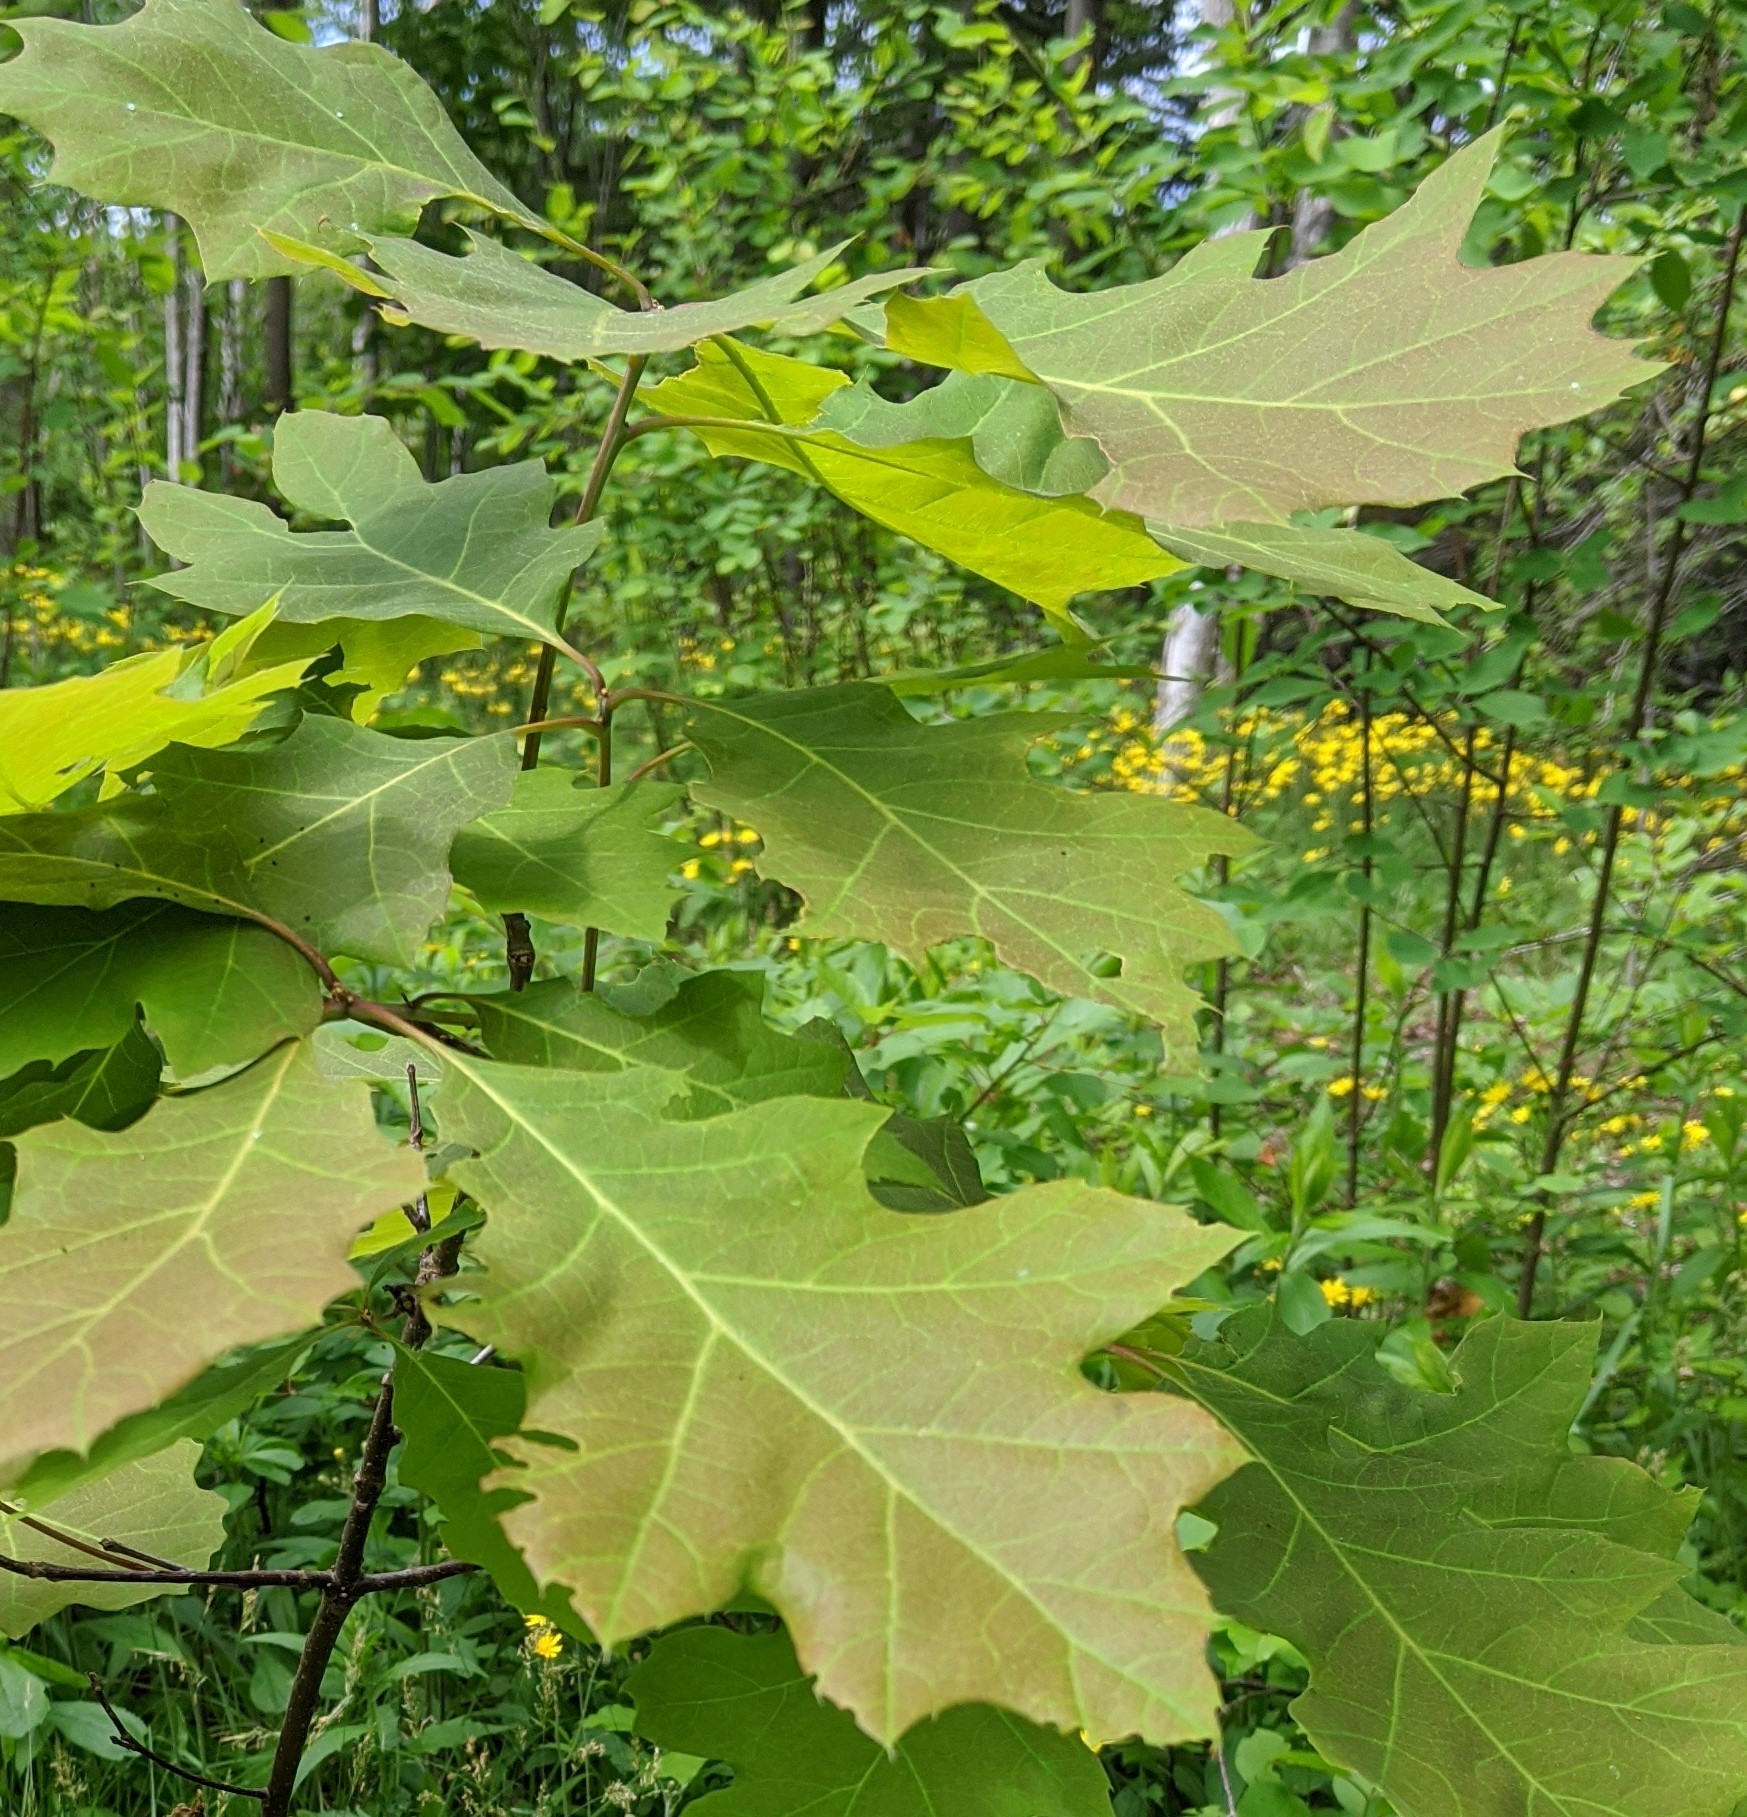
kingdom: Plantae
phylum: Tracheophyta
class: Magnoliopsida
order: Fagales
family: Fagaceae
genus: Quercus
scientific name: Quercus rubra
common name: Red oak
